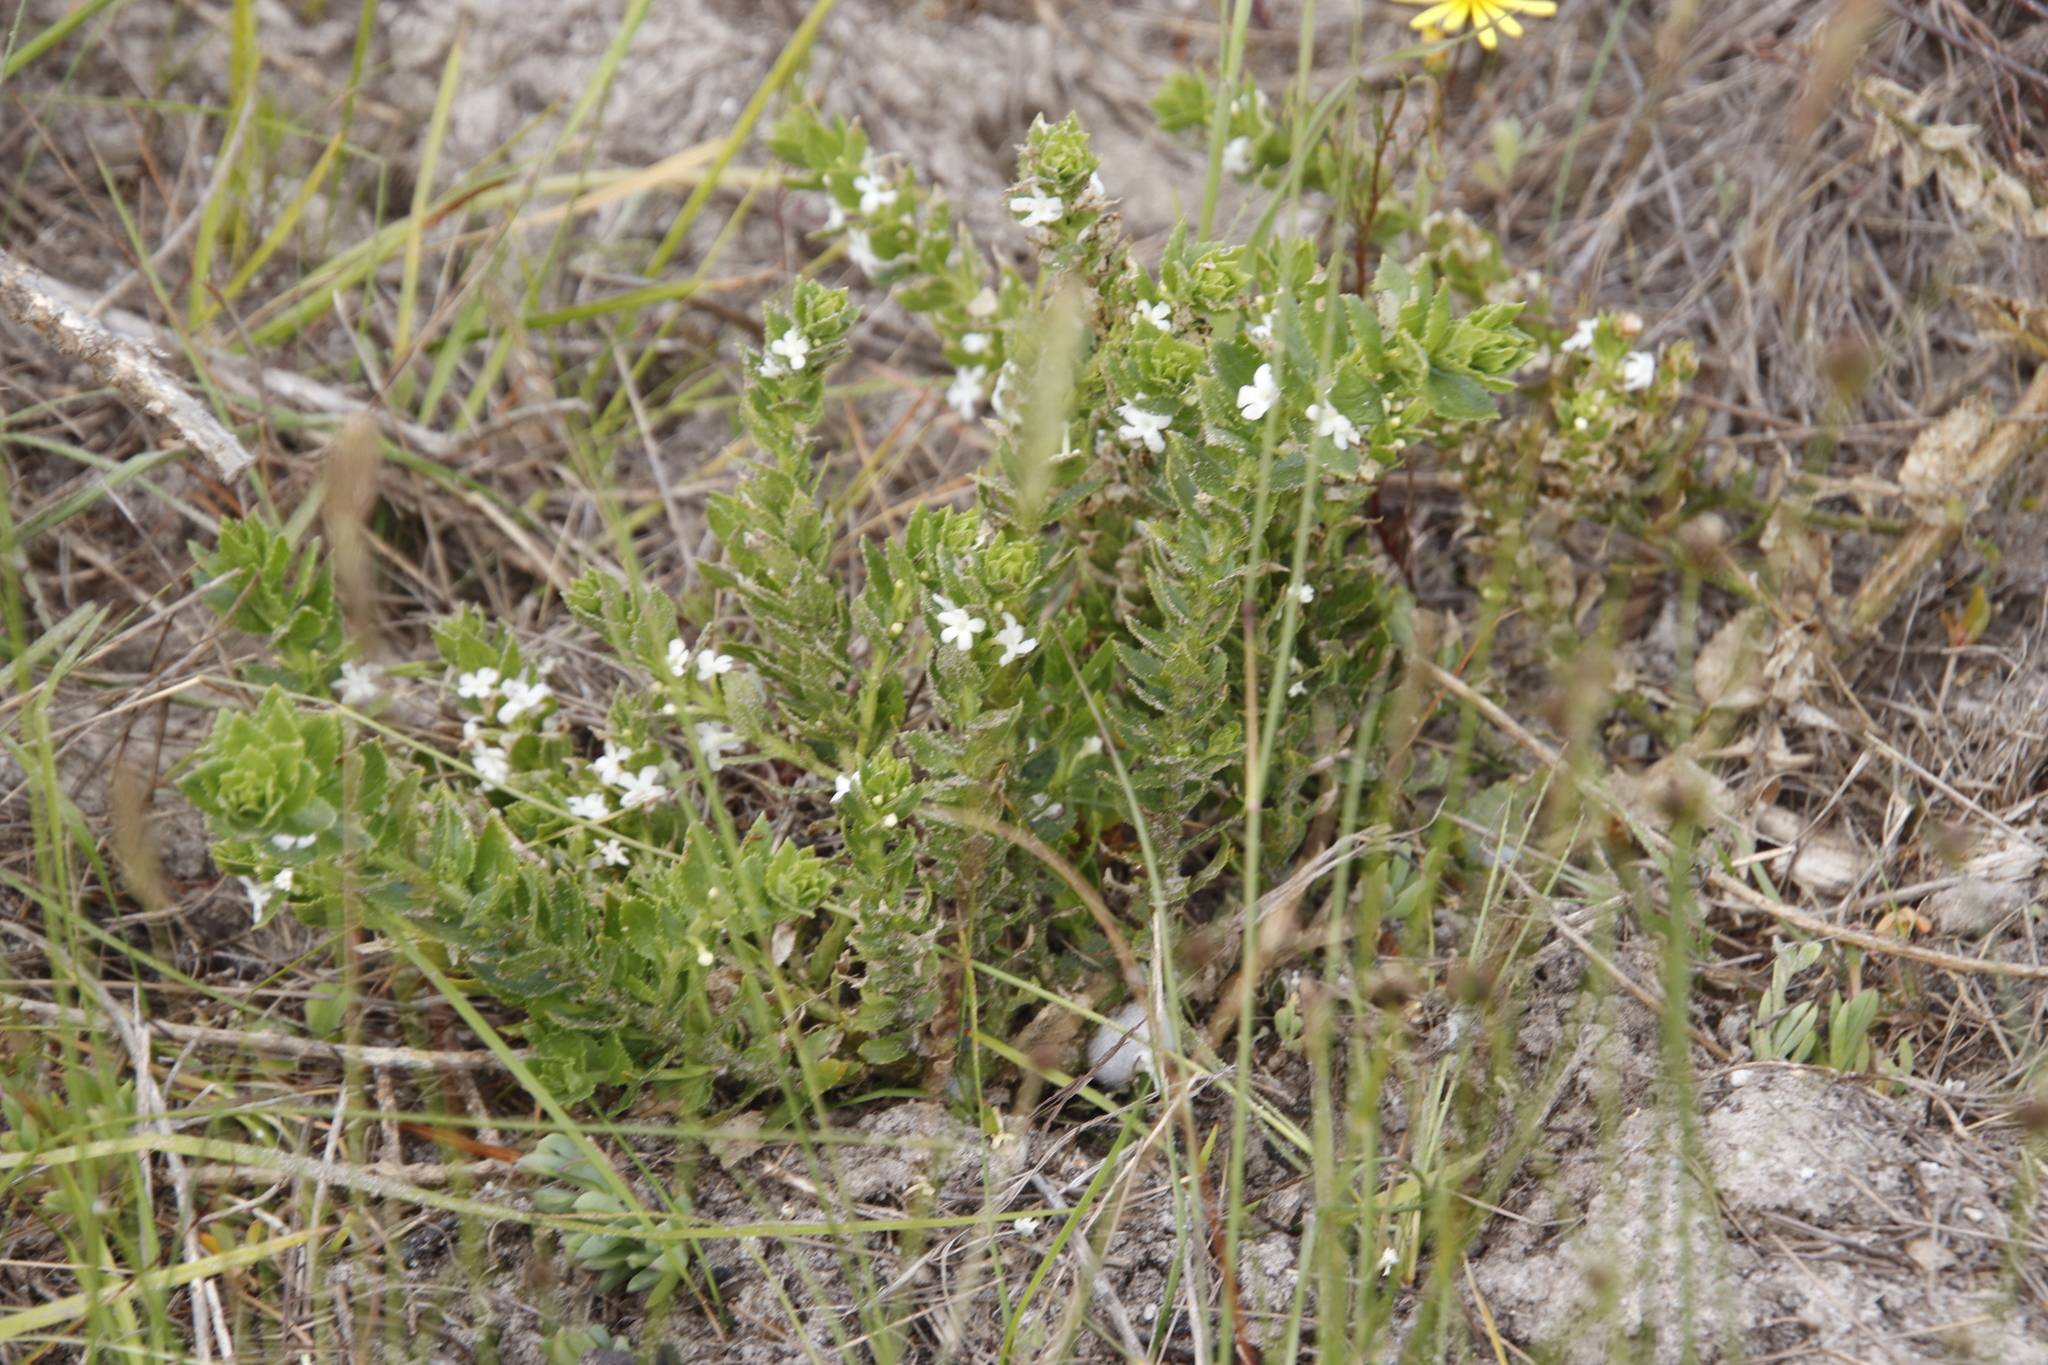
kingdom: Plantae
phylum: Tracheophyta
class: Magnoliopsida
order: Lamiales
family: Scrophulariaceae
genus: Oftia
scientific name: Oftia africana
